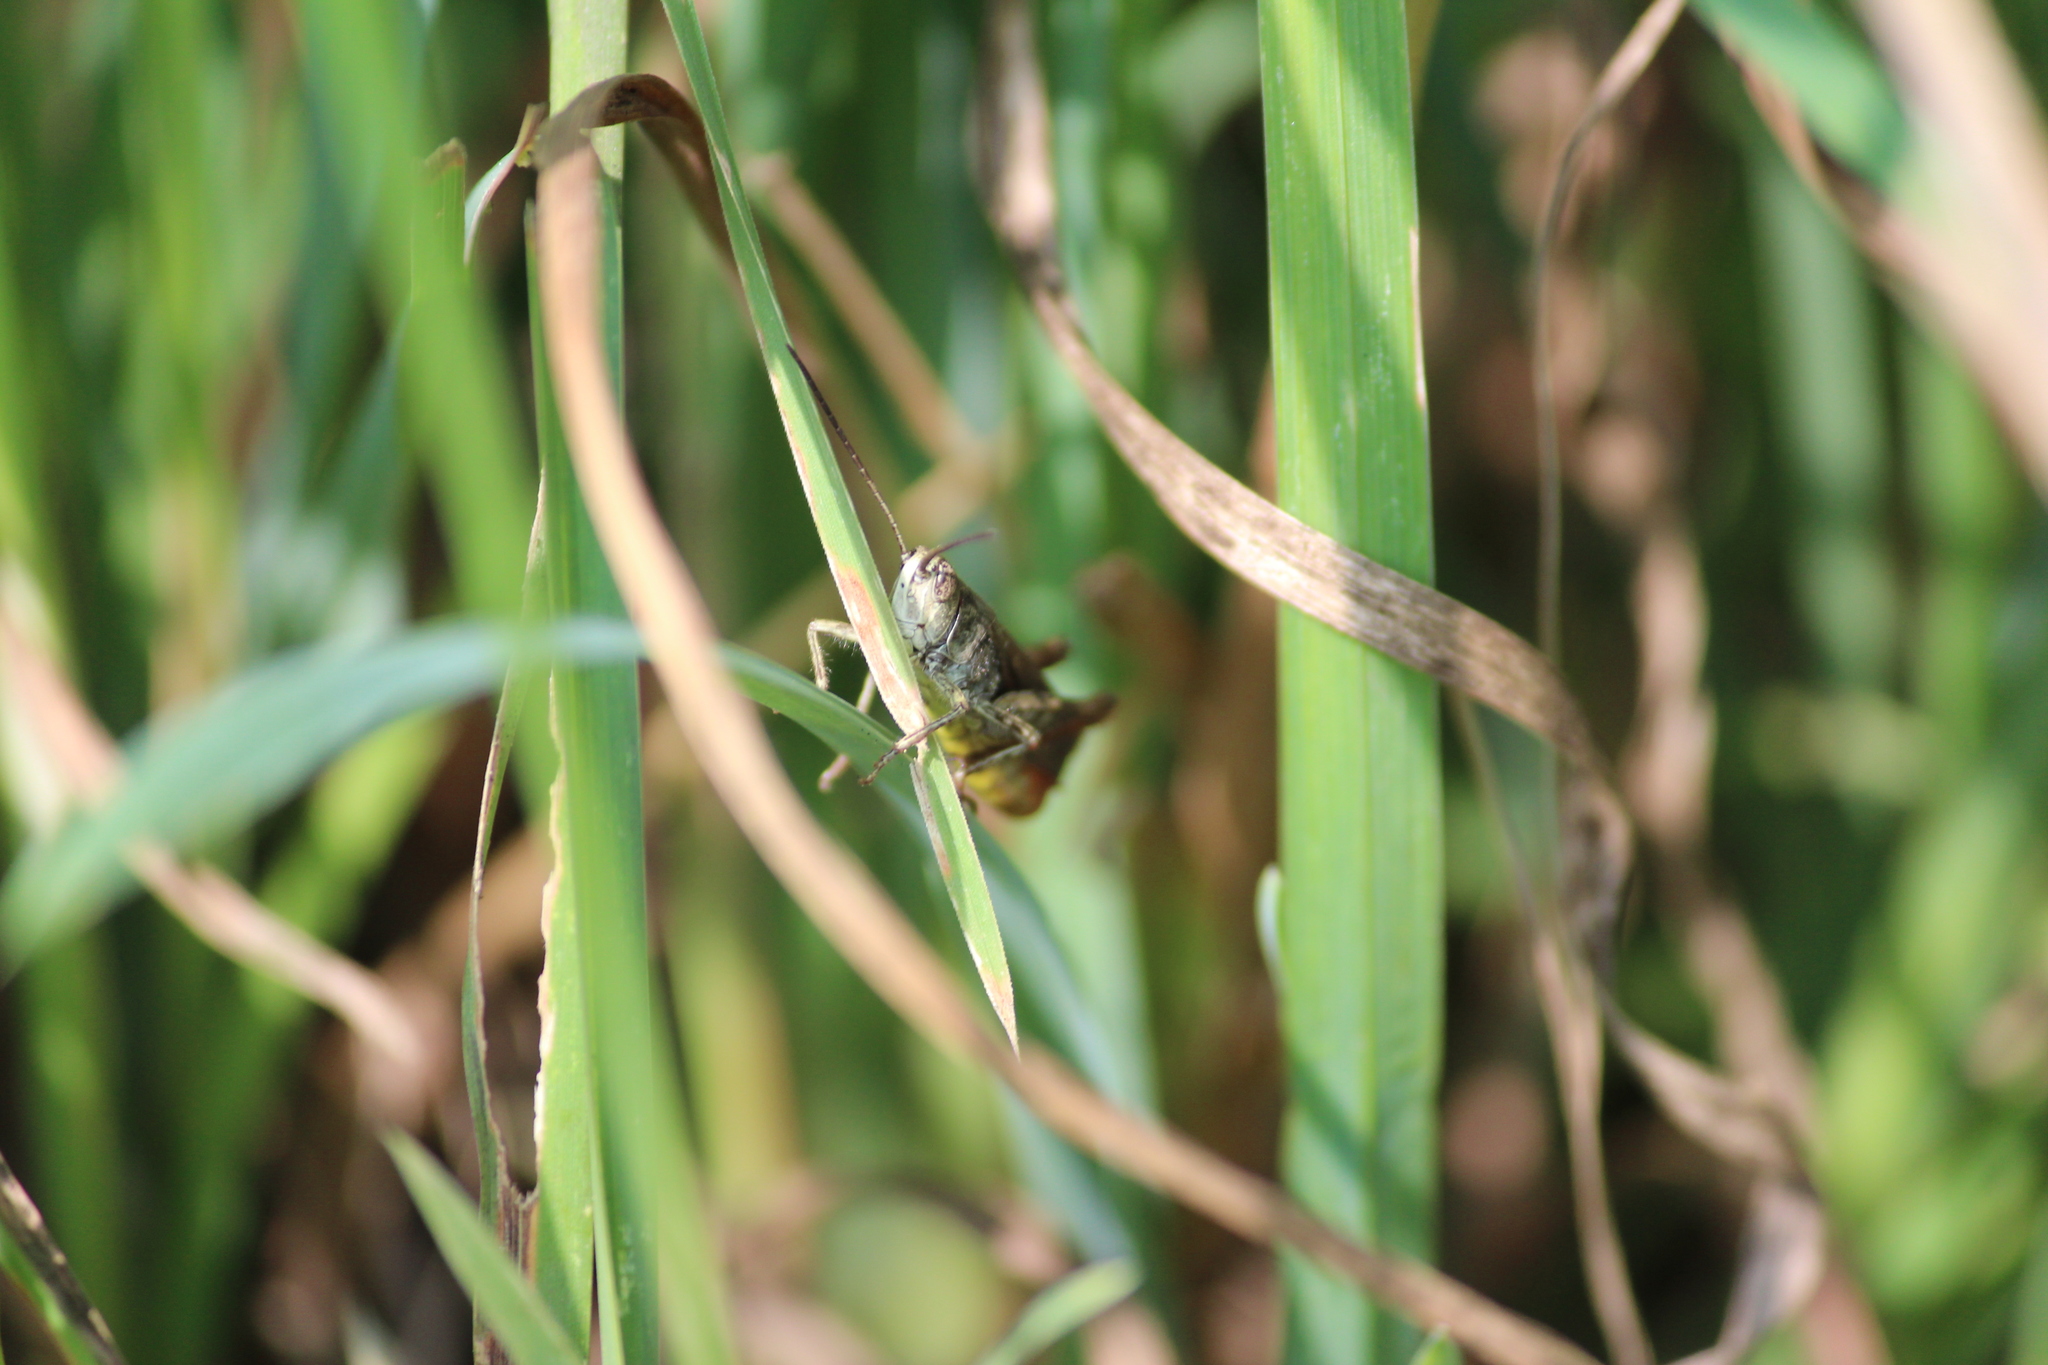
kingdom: Animalia
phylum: Arthropoda
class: Insecta
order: Orthoptera
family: Acrididae
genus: Glyptobothrus
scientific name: Glyptobothrus
